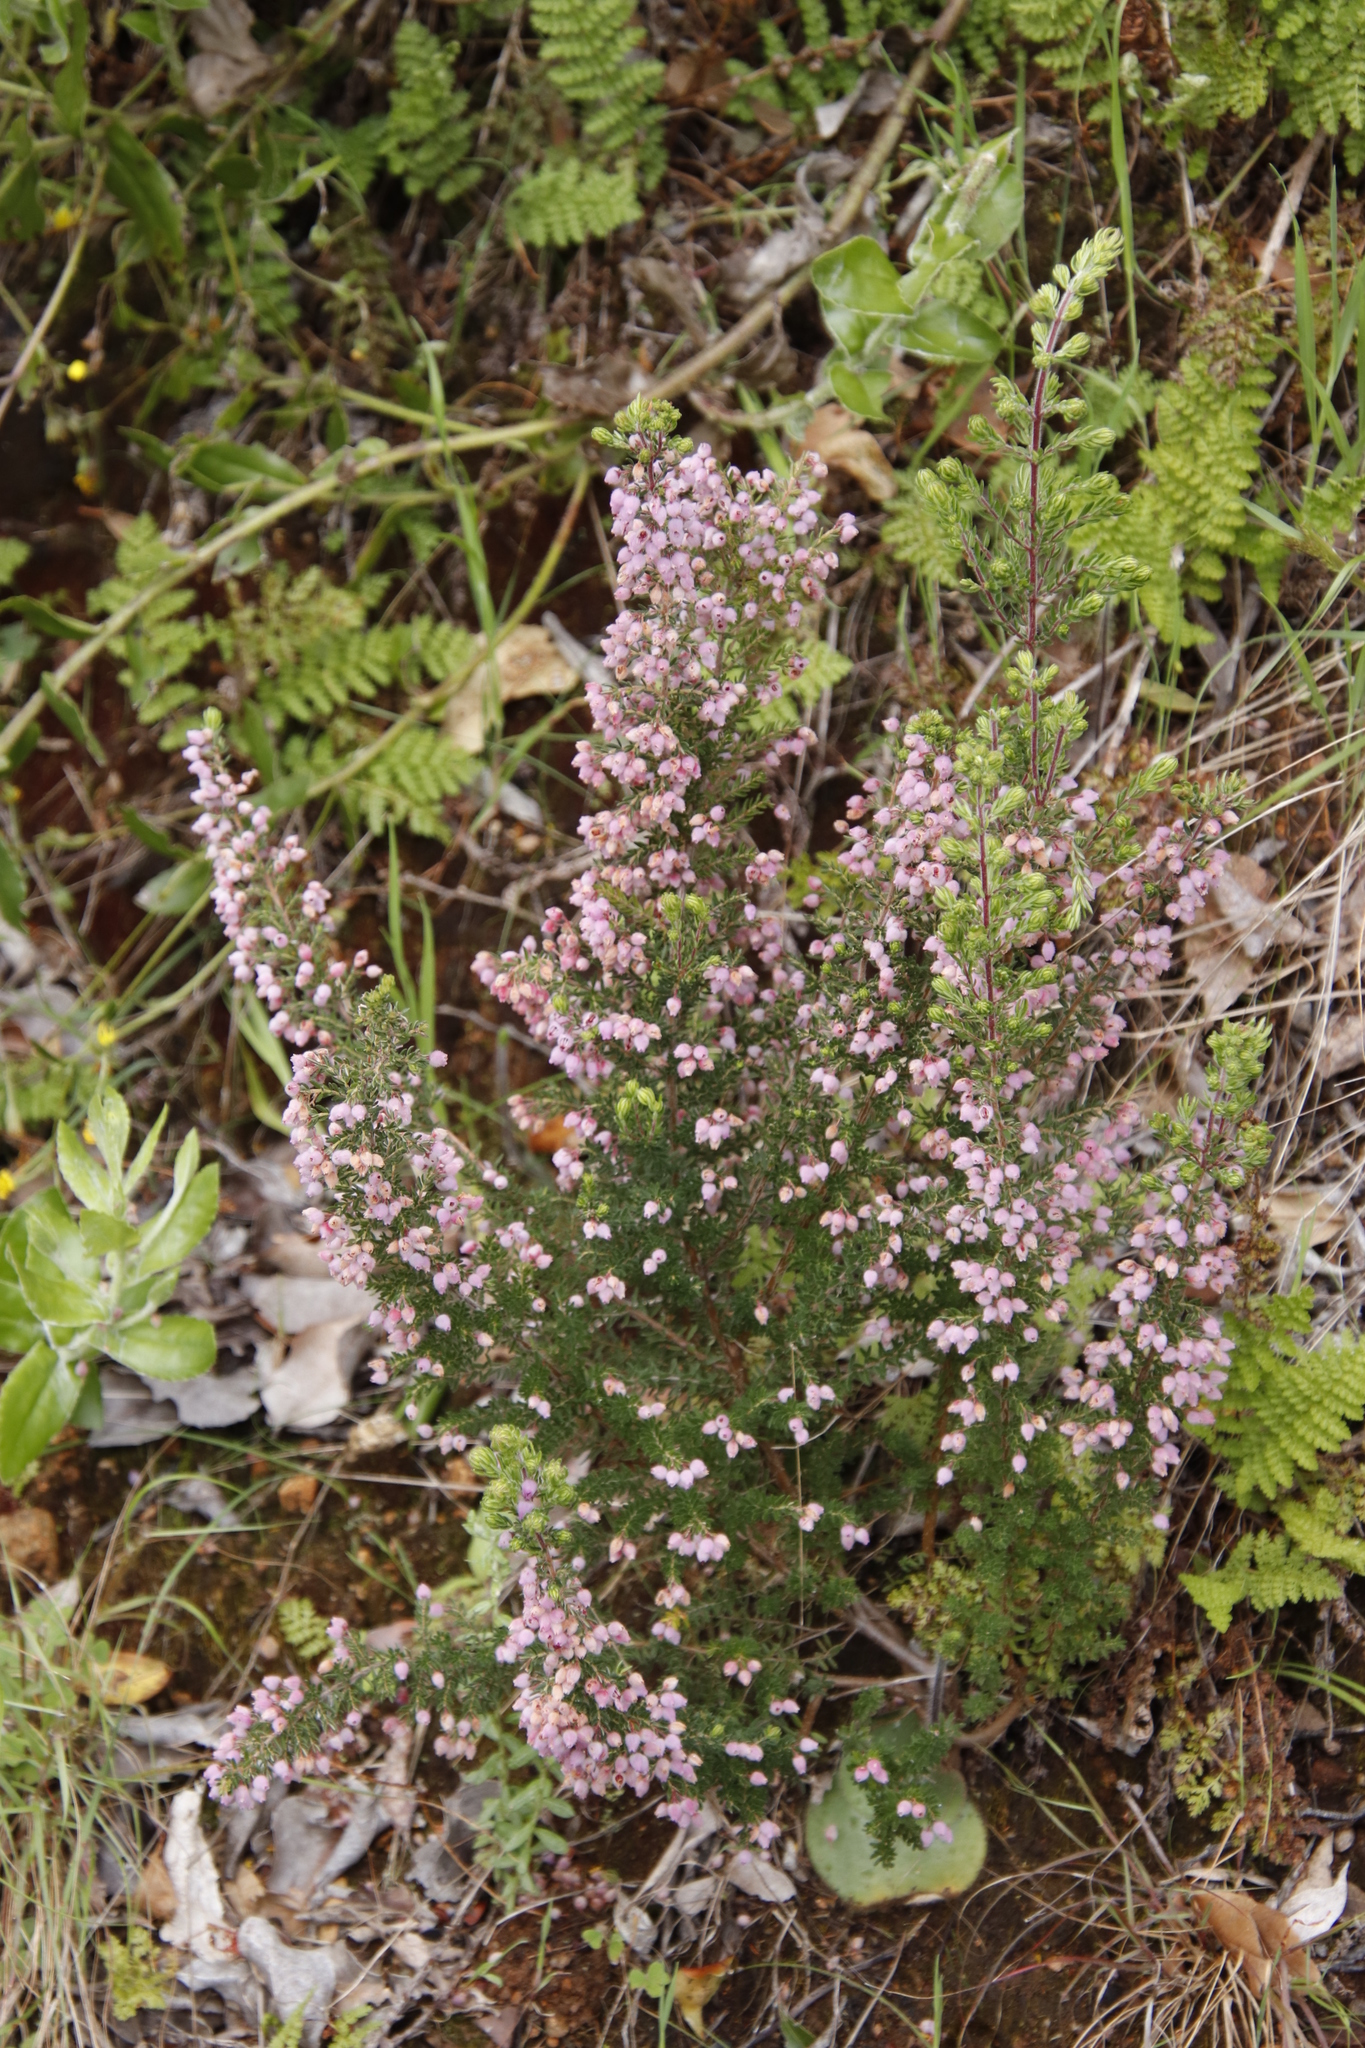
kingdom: Plantae
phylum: Tracheophyta
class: Magnoliopsida
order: Ericales
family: Ericaceae
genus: Erica
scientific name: Erica hirtiflora
